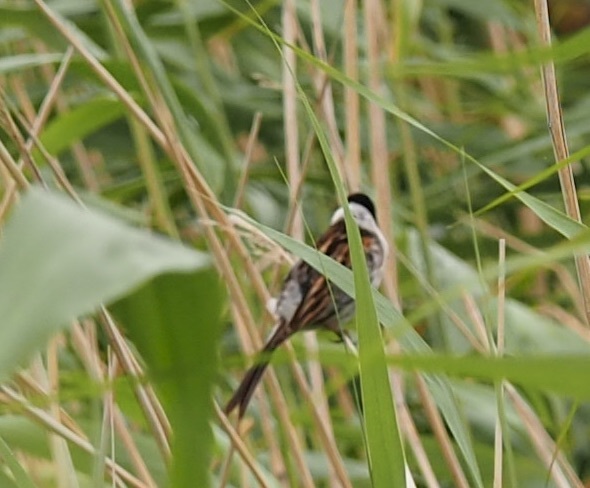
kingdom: Animalia
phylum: Chordata
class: Aves
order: Passeriformes
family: Emberizidae
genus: Emberiza
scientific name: Emberiza schoeniclus
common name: Reed bunting
